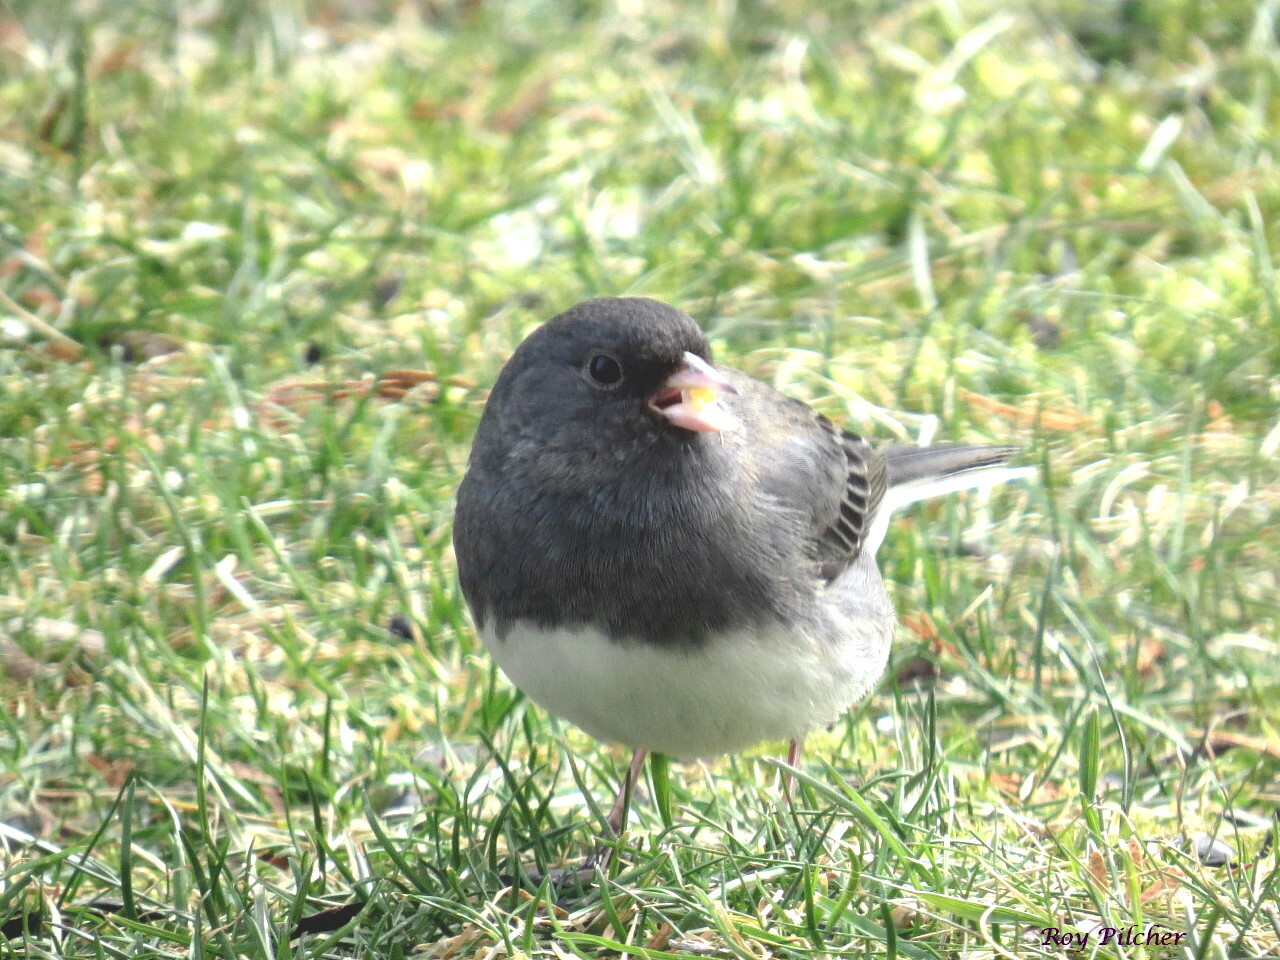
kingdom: Animalia
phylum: Chordata
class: Aves
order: Passeriformes
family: Passerellidae
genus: Junco
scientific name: Junco hyemalis
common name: Dark-eyed junco
